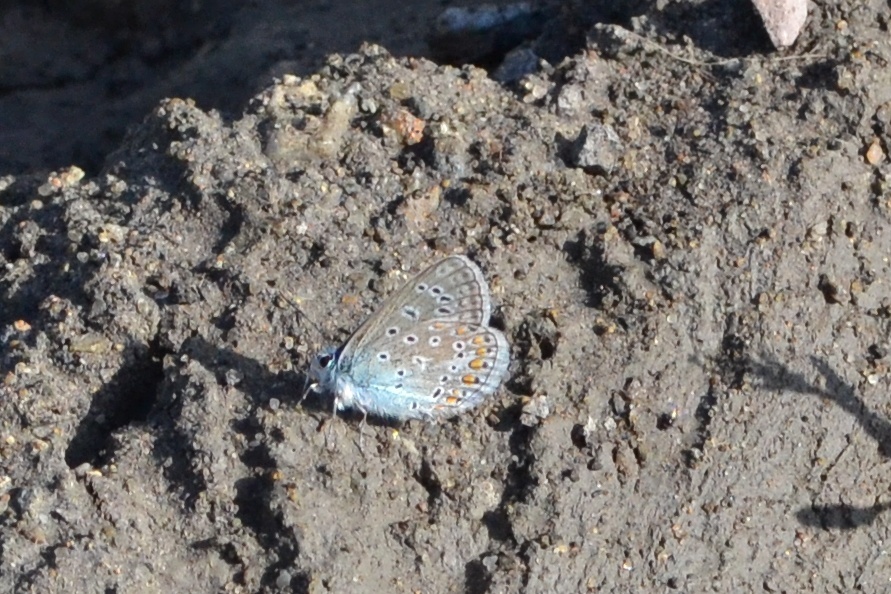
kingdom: Animalia
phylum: Arthropoda
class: Insecta
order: Lepidoptera
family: Lycaenidae
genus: Polyommatus
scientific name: Polyommatus icarus
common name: Common blue
